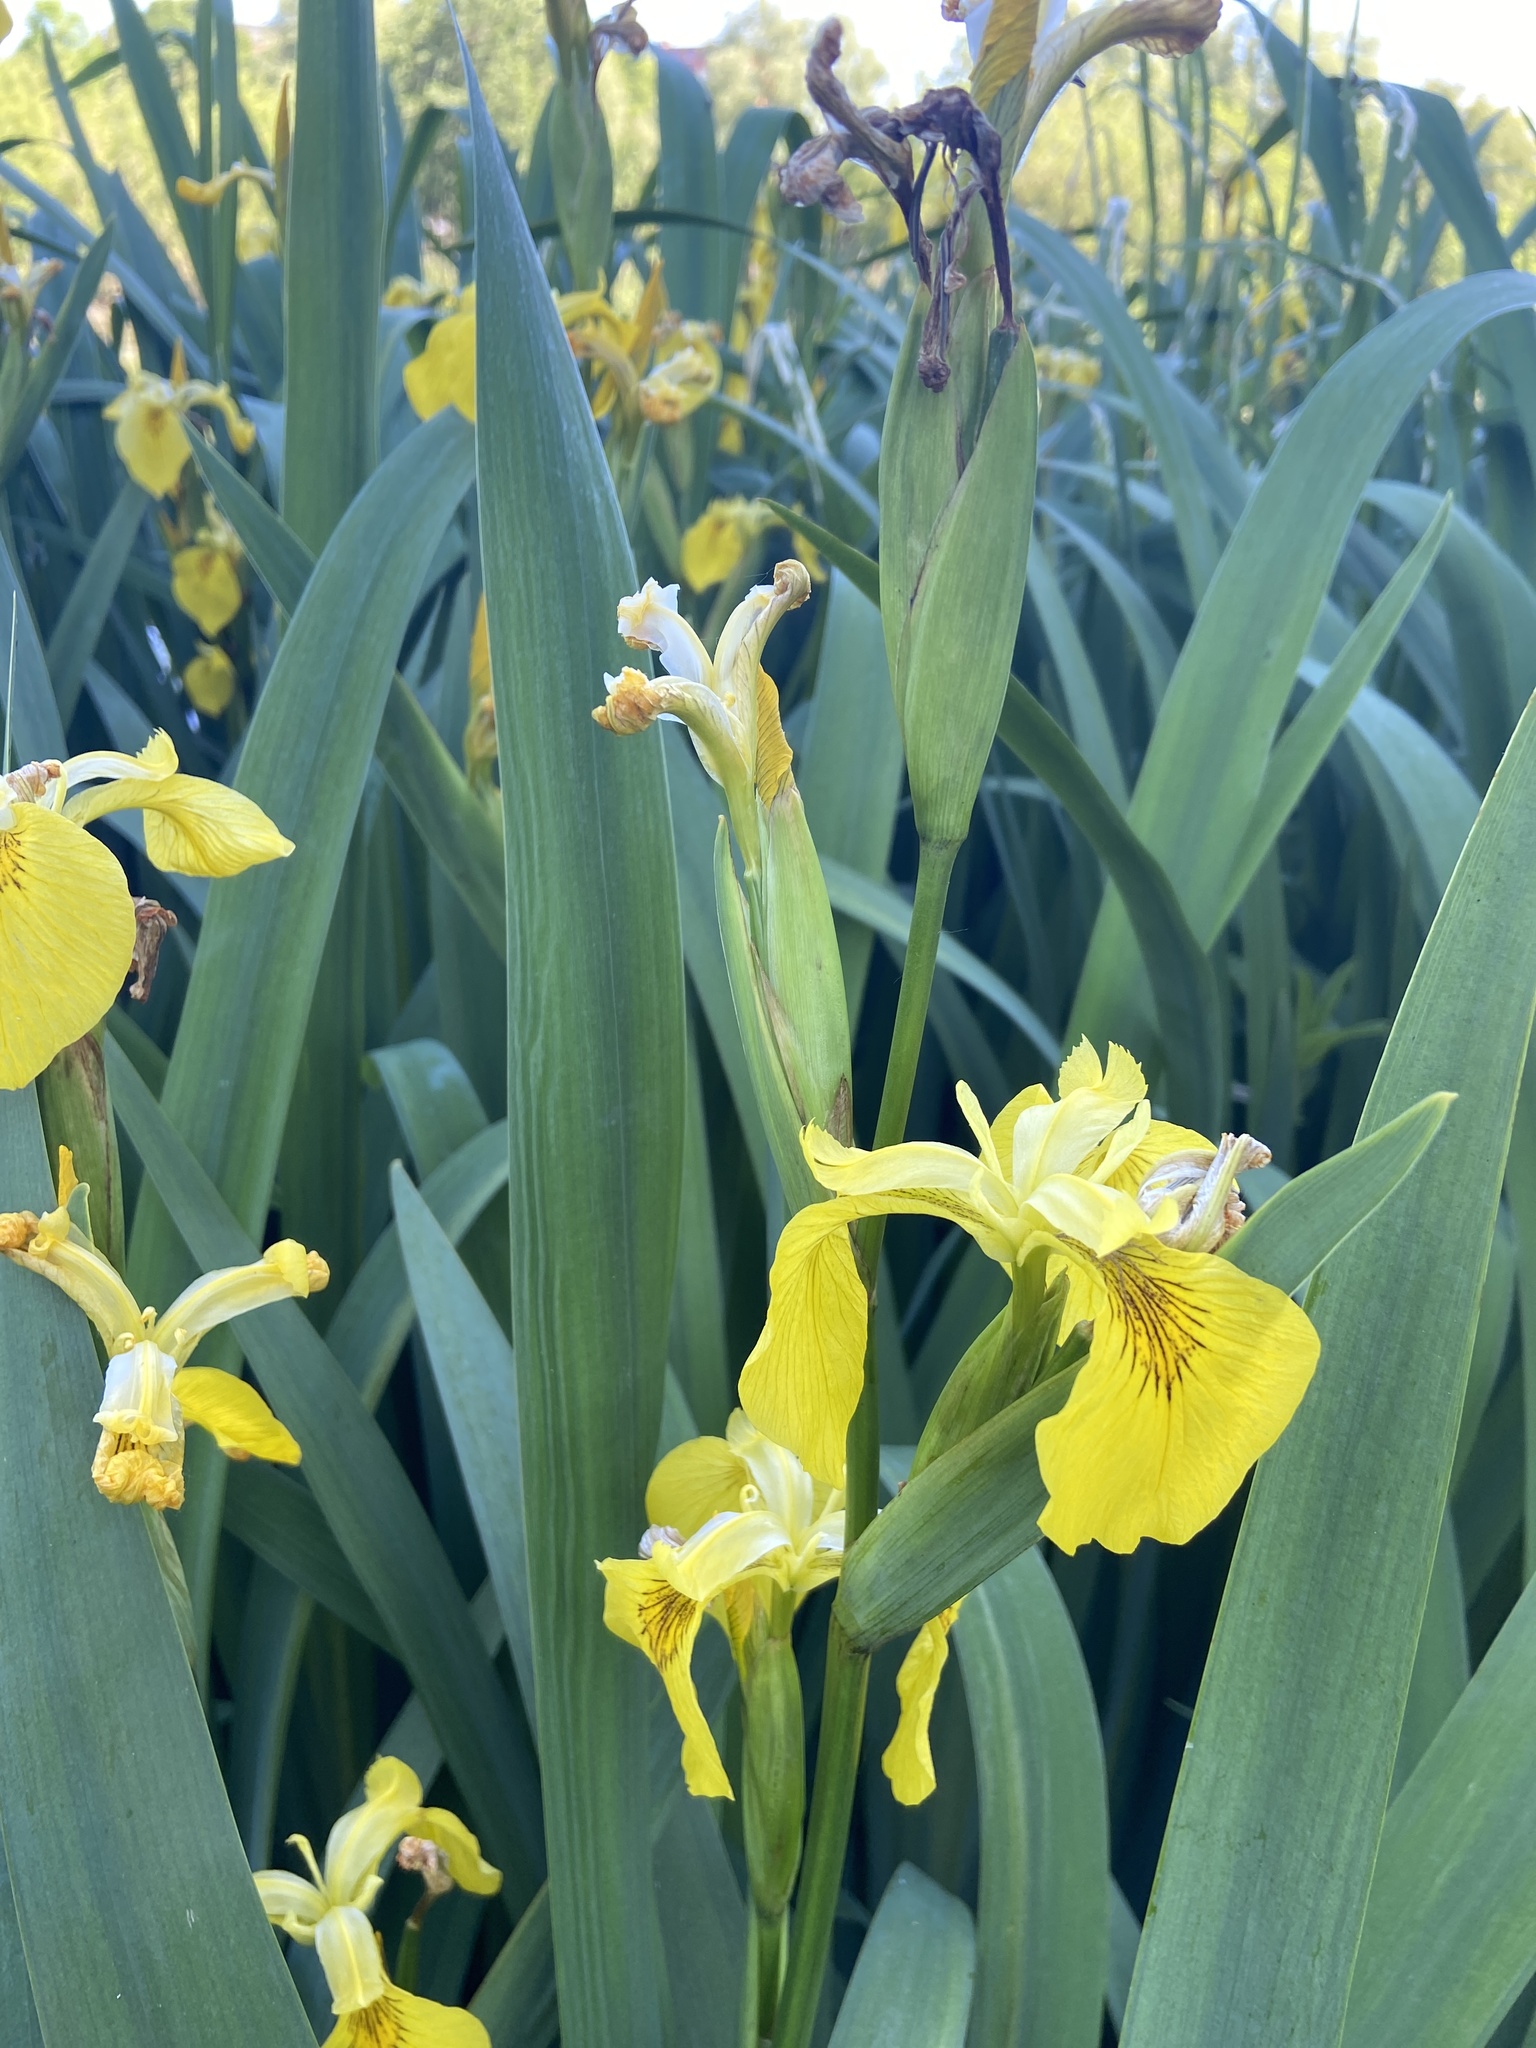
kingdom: Plantae
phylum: Tracheophyta
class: Liliopsida
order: Asparagales
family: Iridaceae
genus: Iris
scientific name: Iris pseudacorus
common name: Yellow flag
